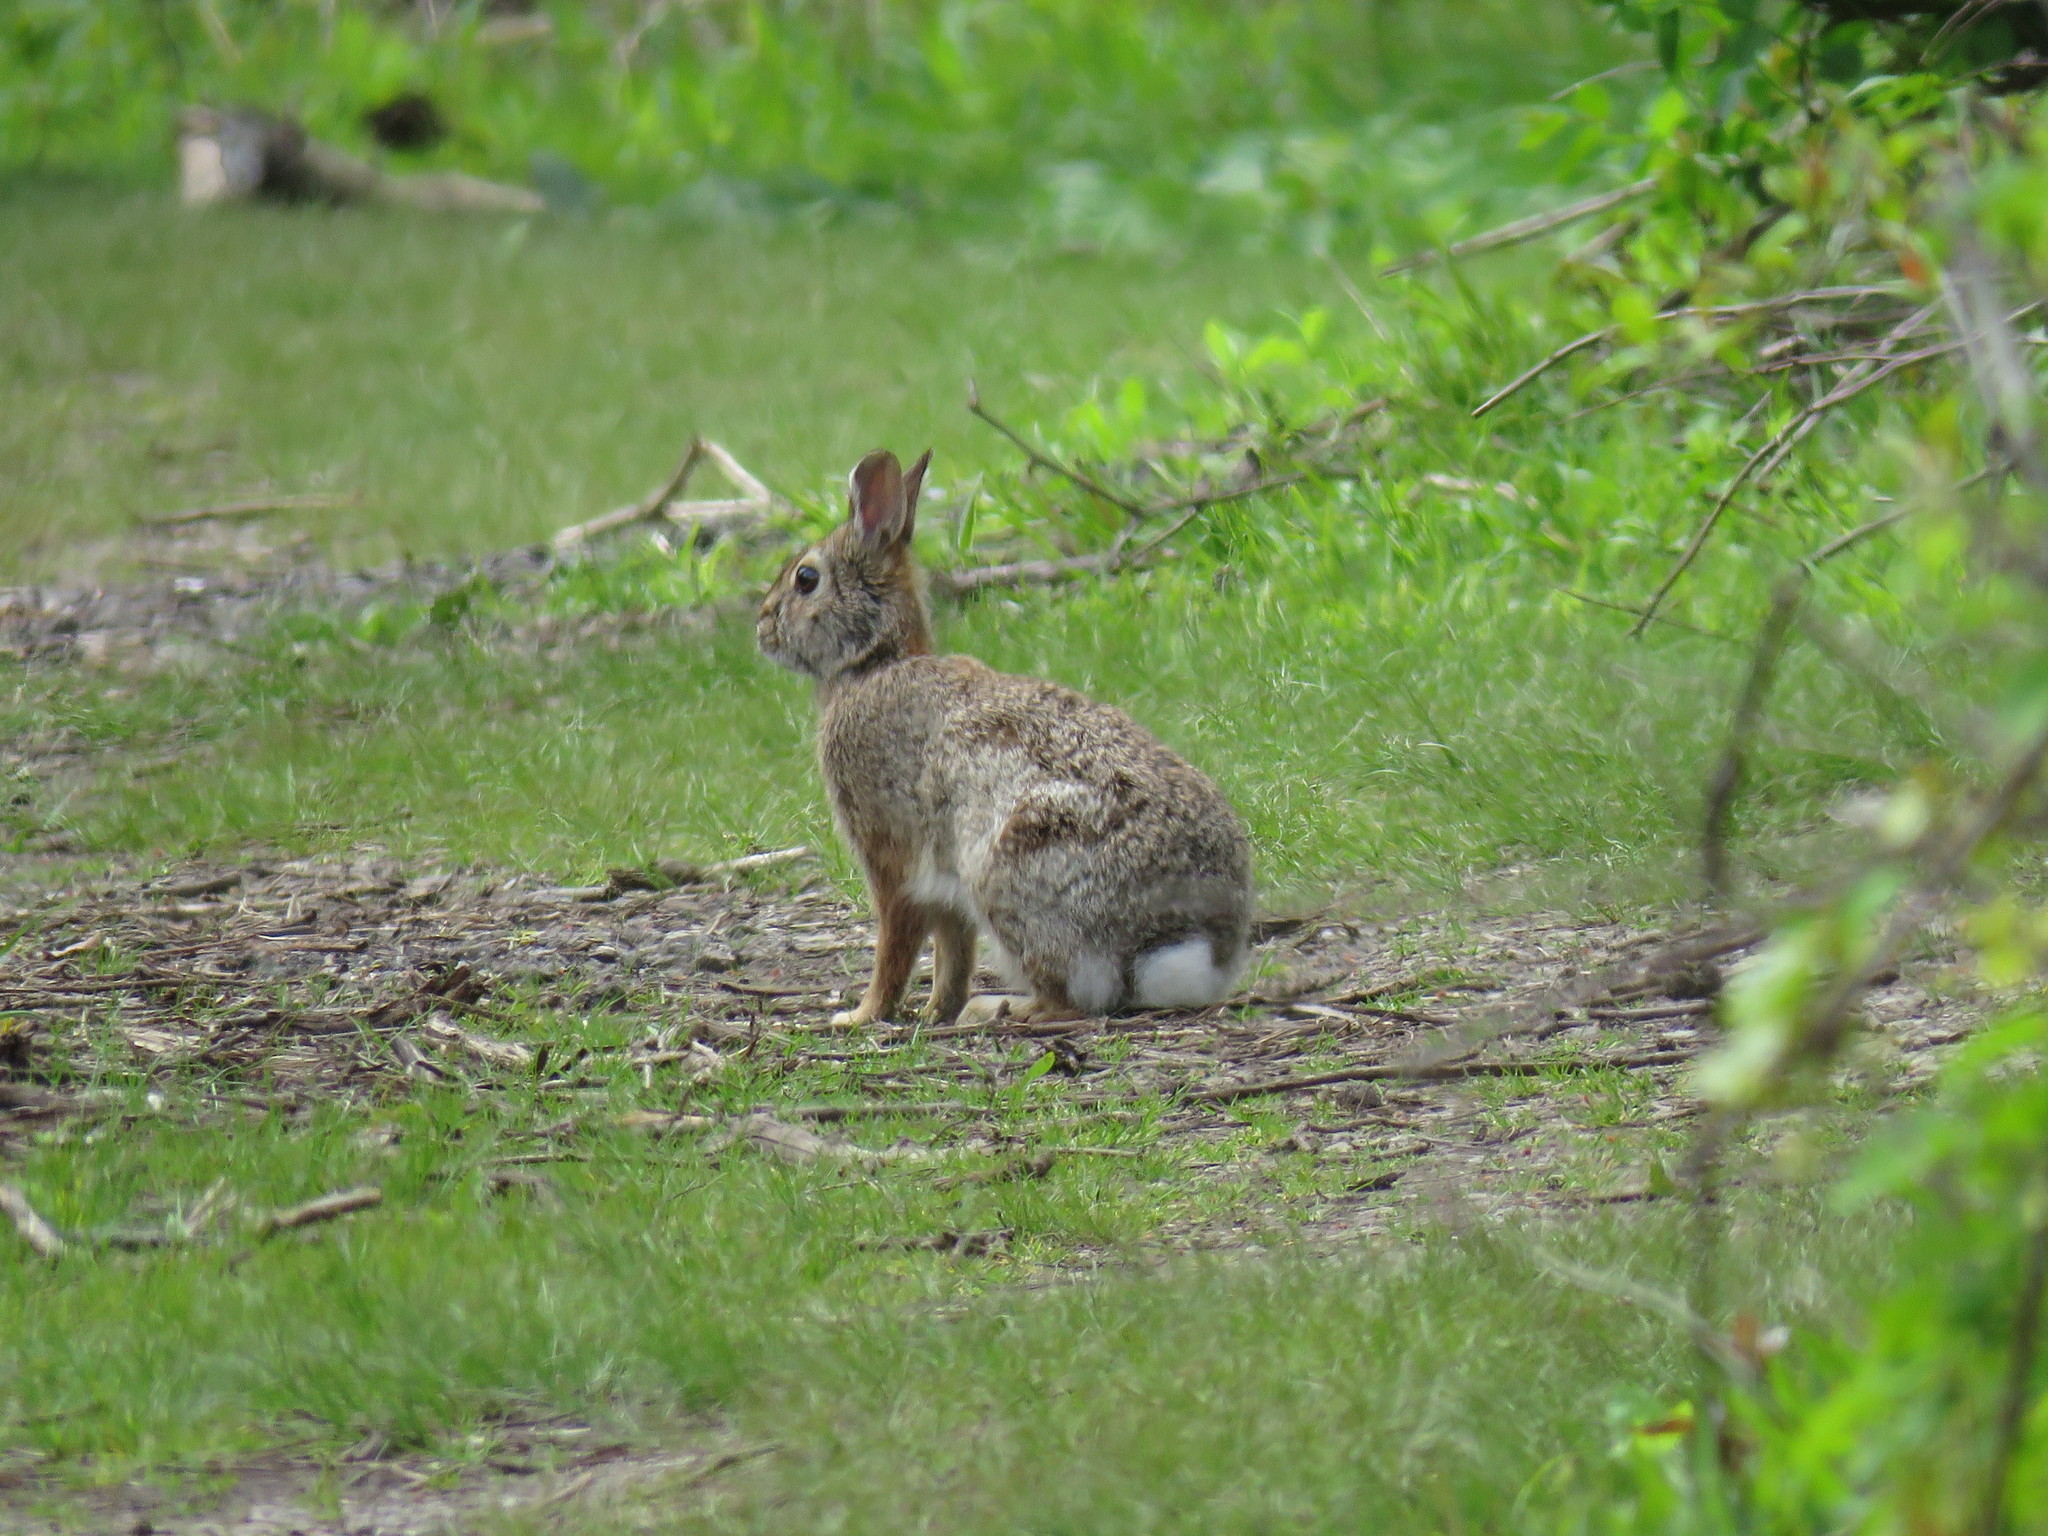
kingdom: Animalia
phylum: Chordata
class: Mammalia
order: Lagomorpha
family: Leporidae
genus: Sylvilagus
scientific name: Sylvilagus floridanus
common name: Eastern cottontail
